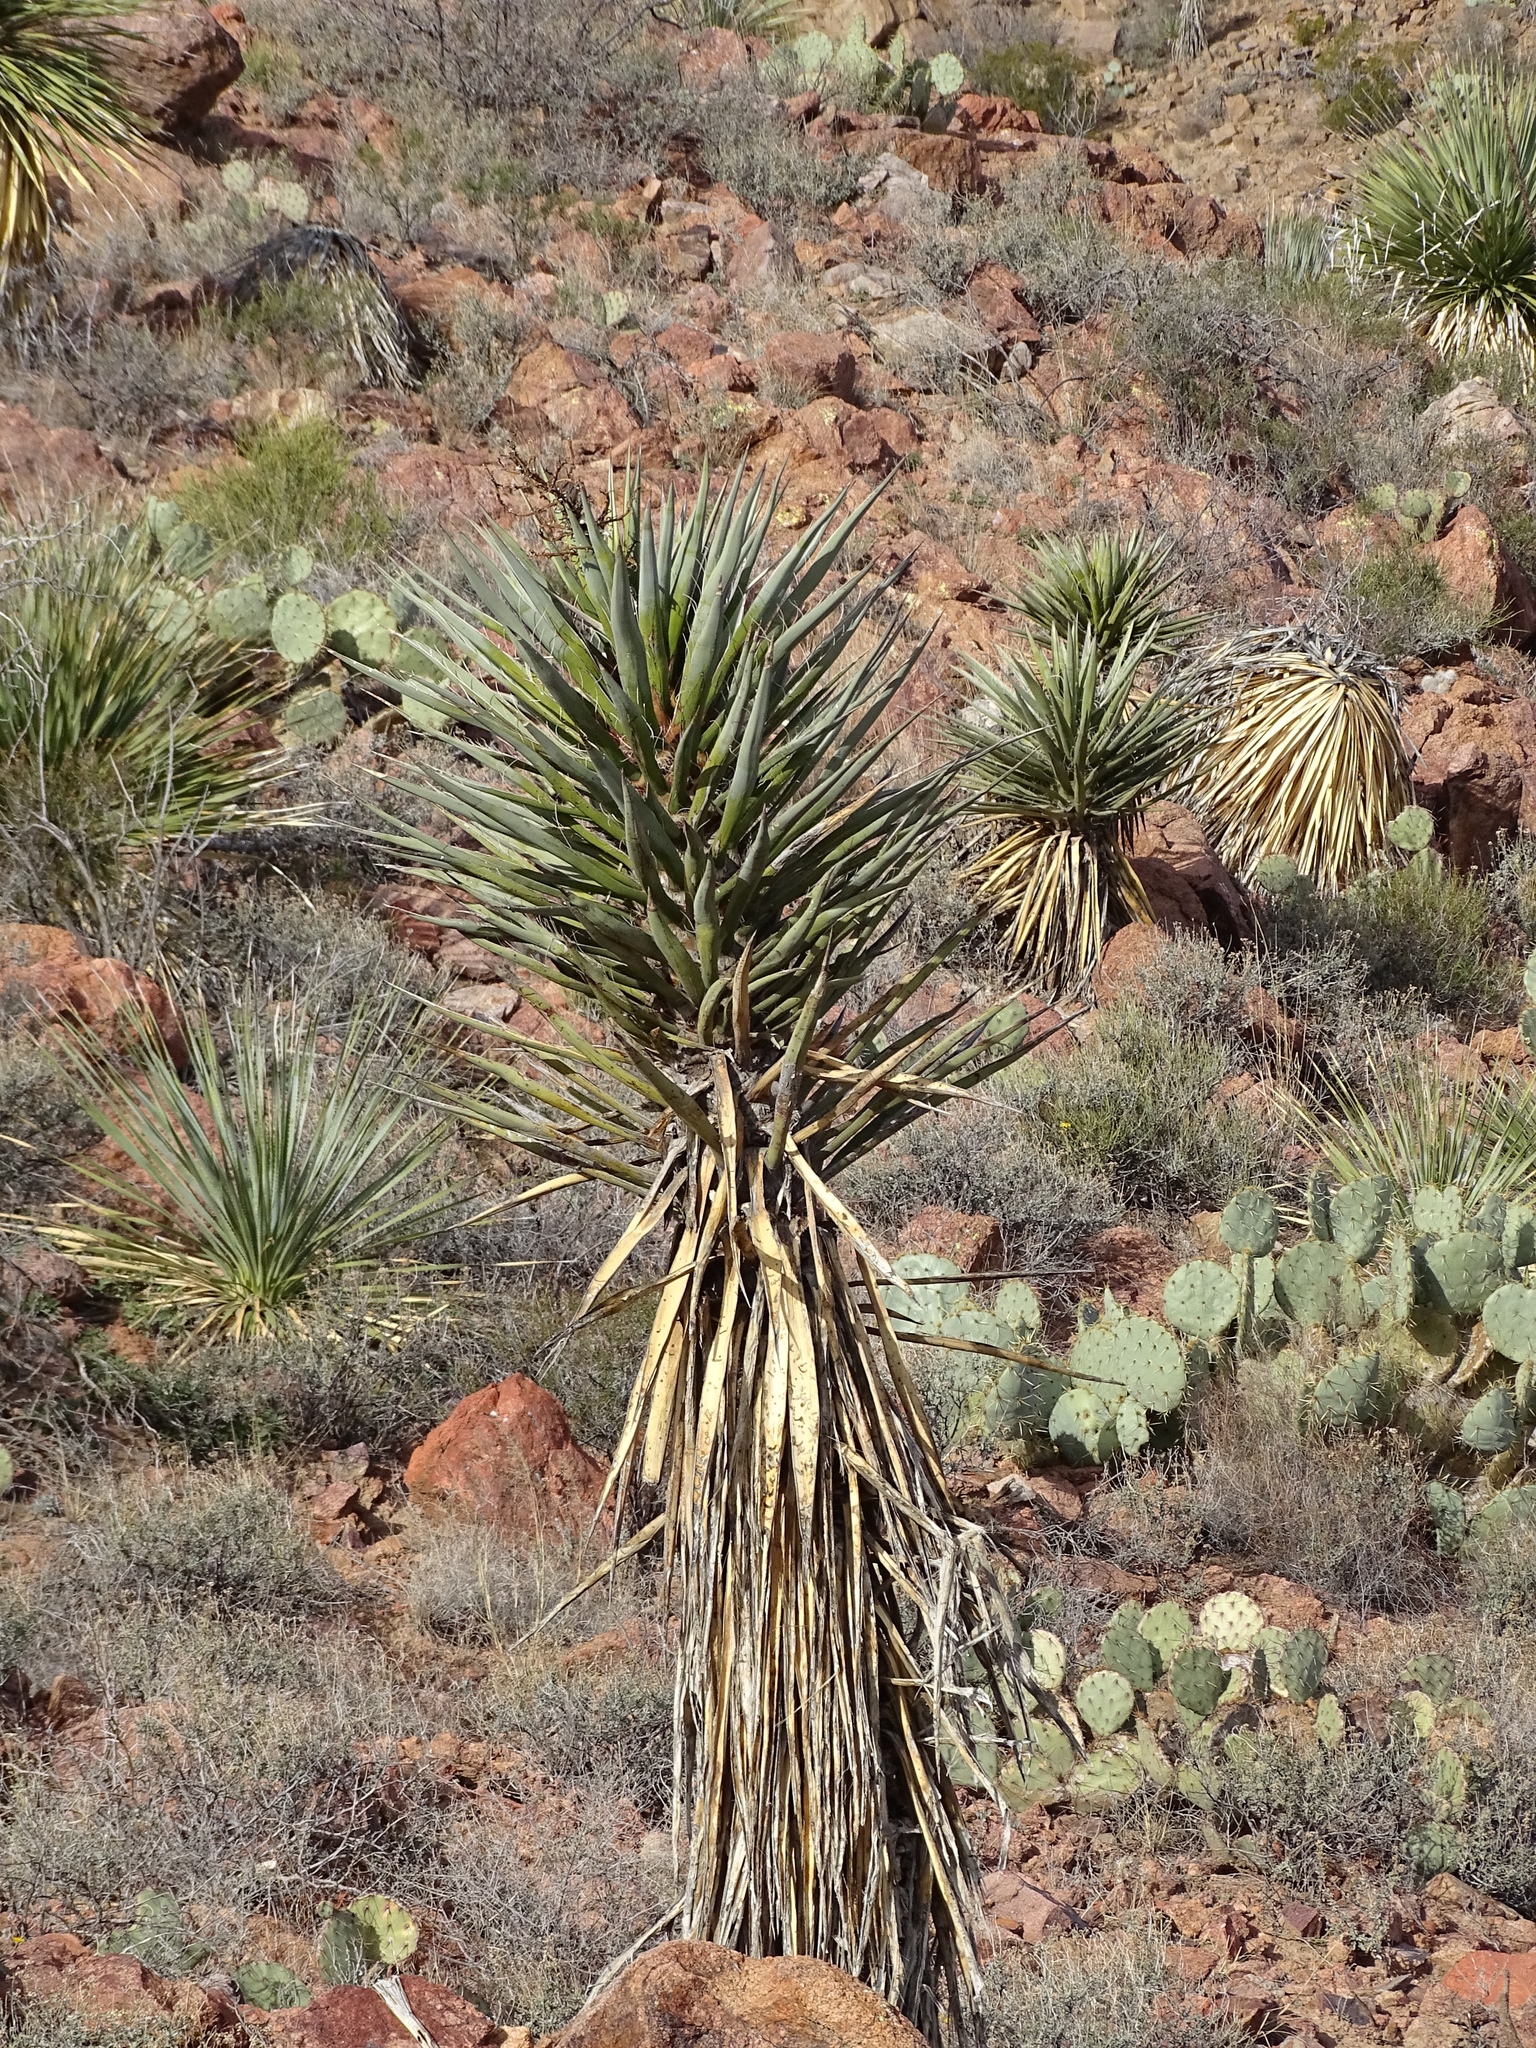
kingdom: Plantae
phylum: Tracheophyta
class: Liliopsida
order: Asparagales
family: Asparagaceae
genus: Yucca
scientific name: Yucca treculiana
